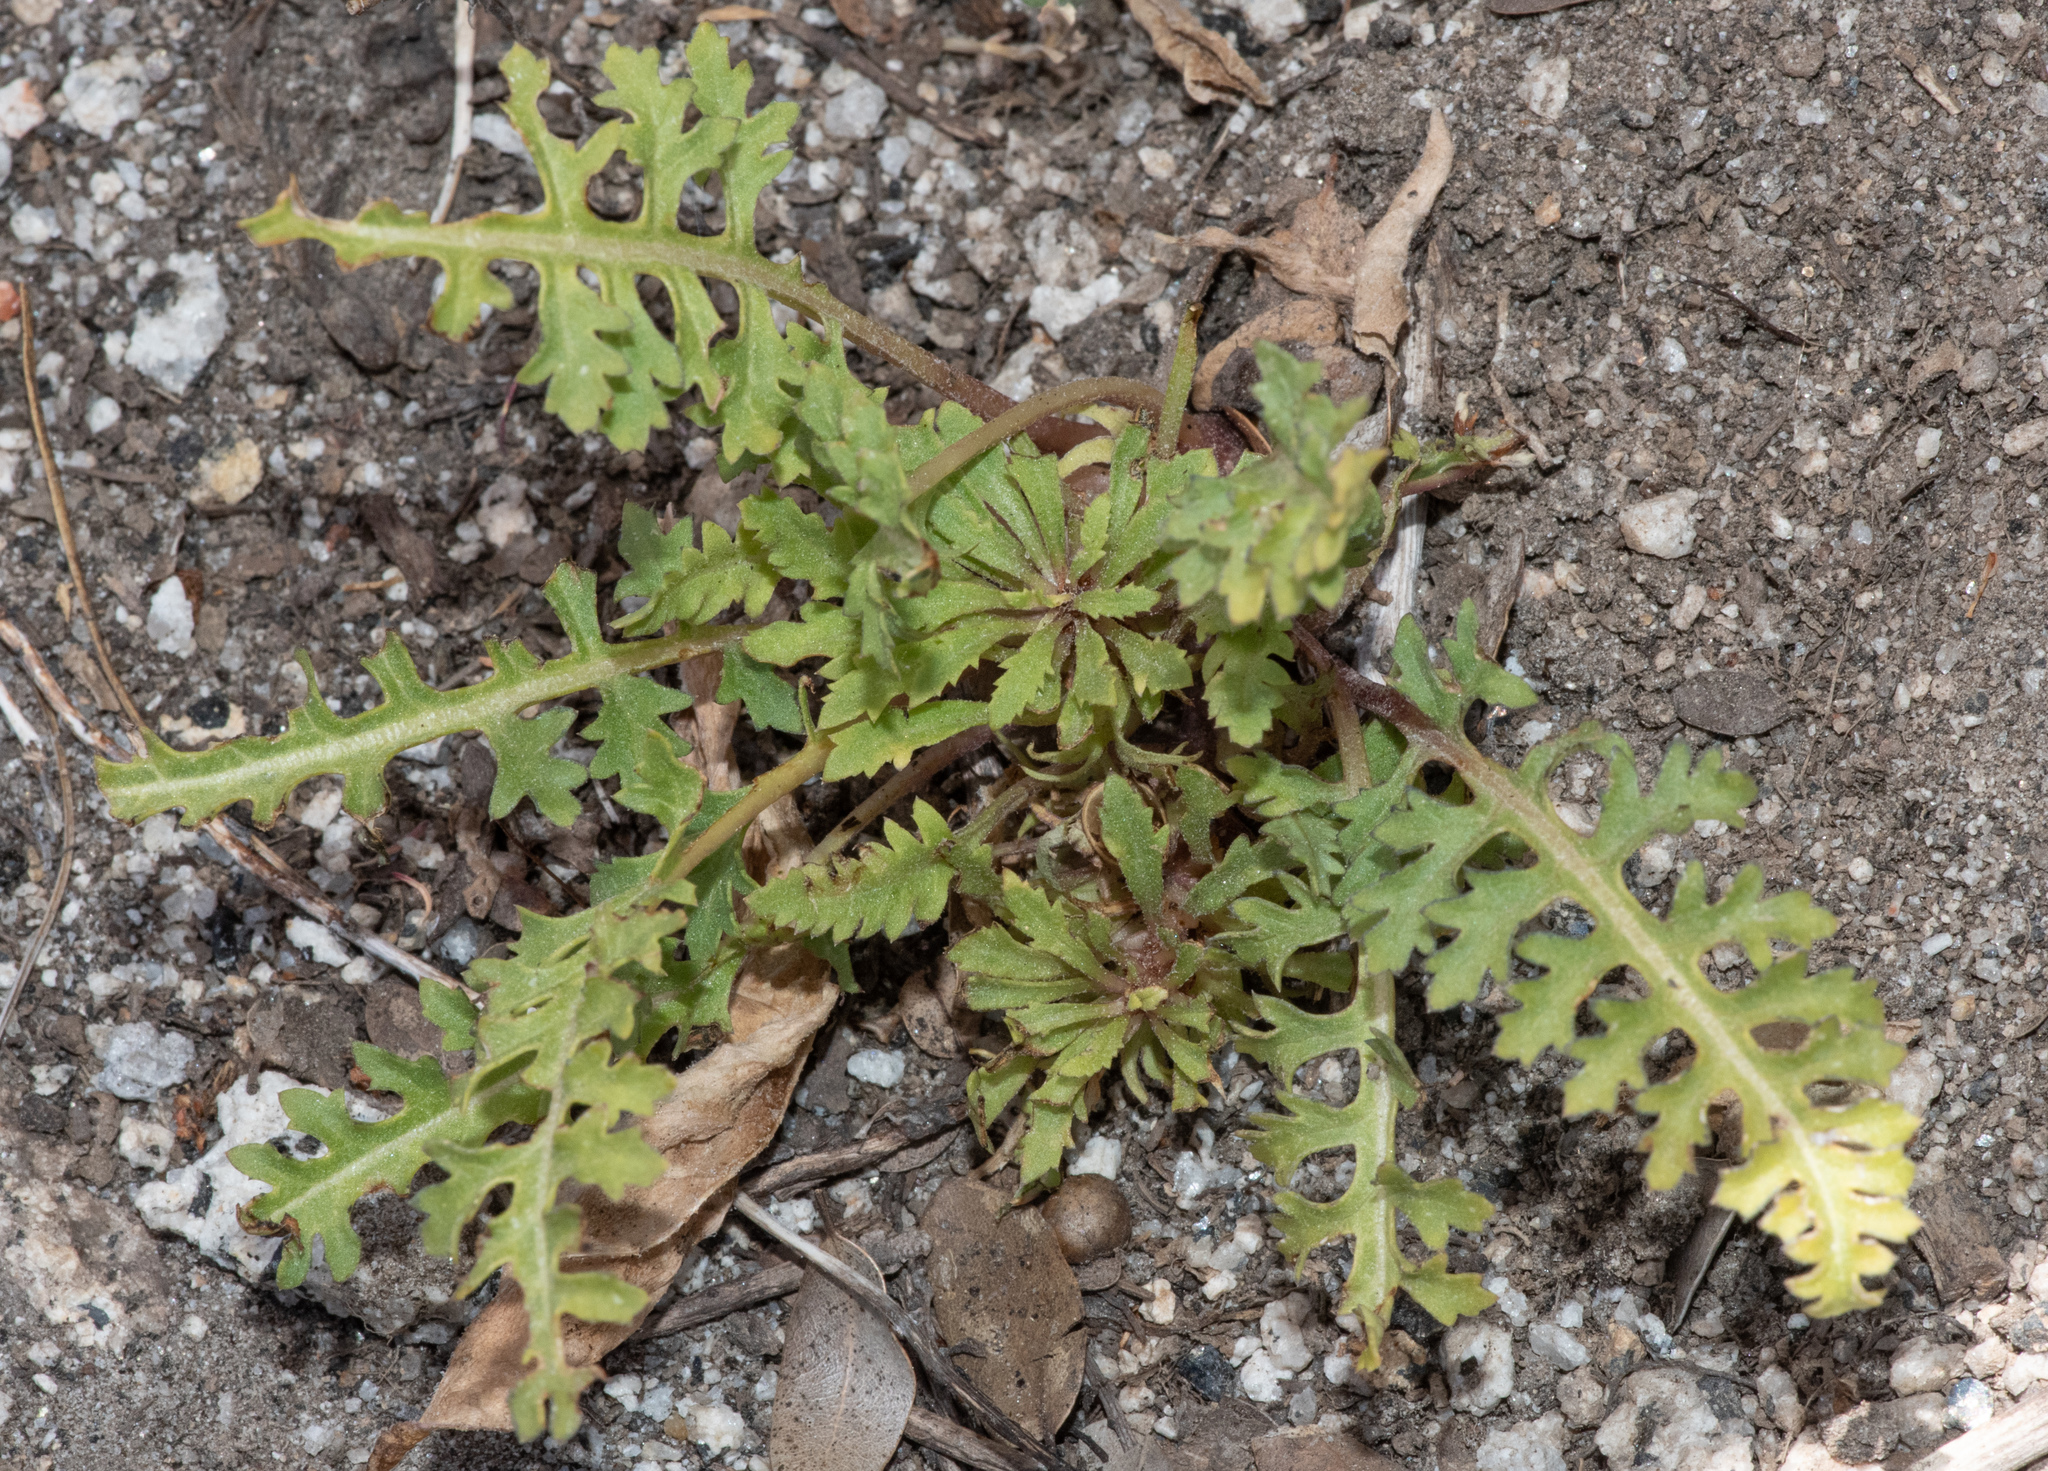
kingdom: Plantae
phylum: Tracheophyta
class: Magnoliopsida
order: Lamiales
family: Orobanchaceae
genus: Pedicularis
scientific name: Pedicularis semibarbata
